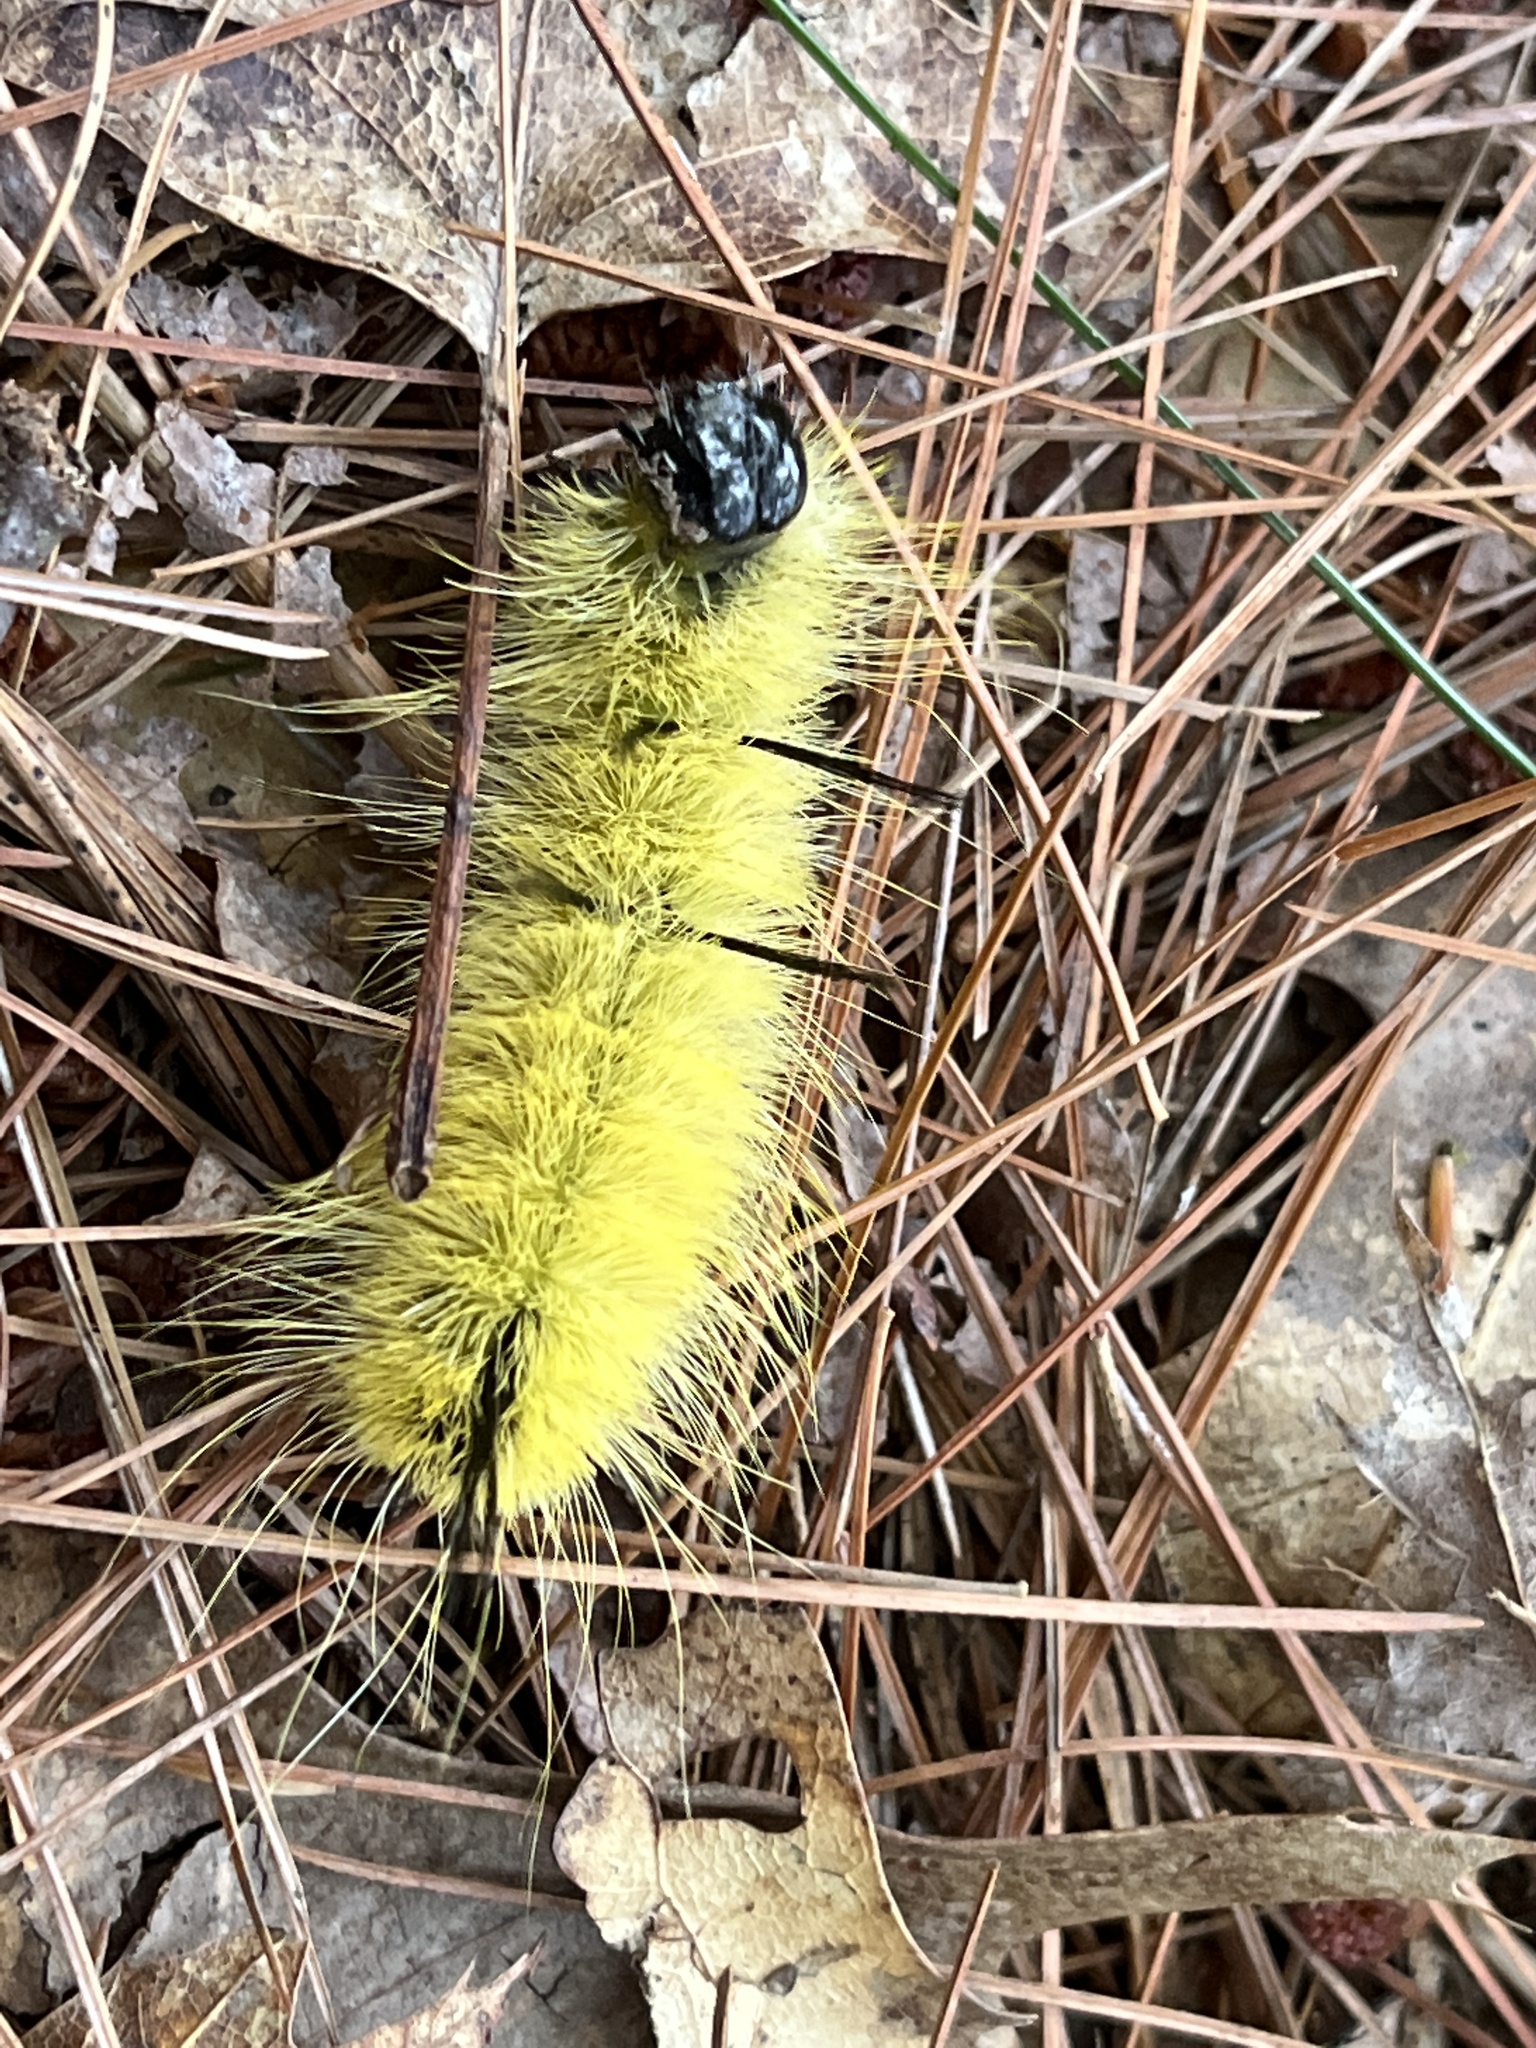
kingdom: Animalia
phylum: Arthropoda
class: Insecta
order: Lepidoptera
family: Noctuidae
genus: Acronicta
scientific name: Acronicta americana
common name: American dagger
